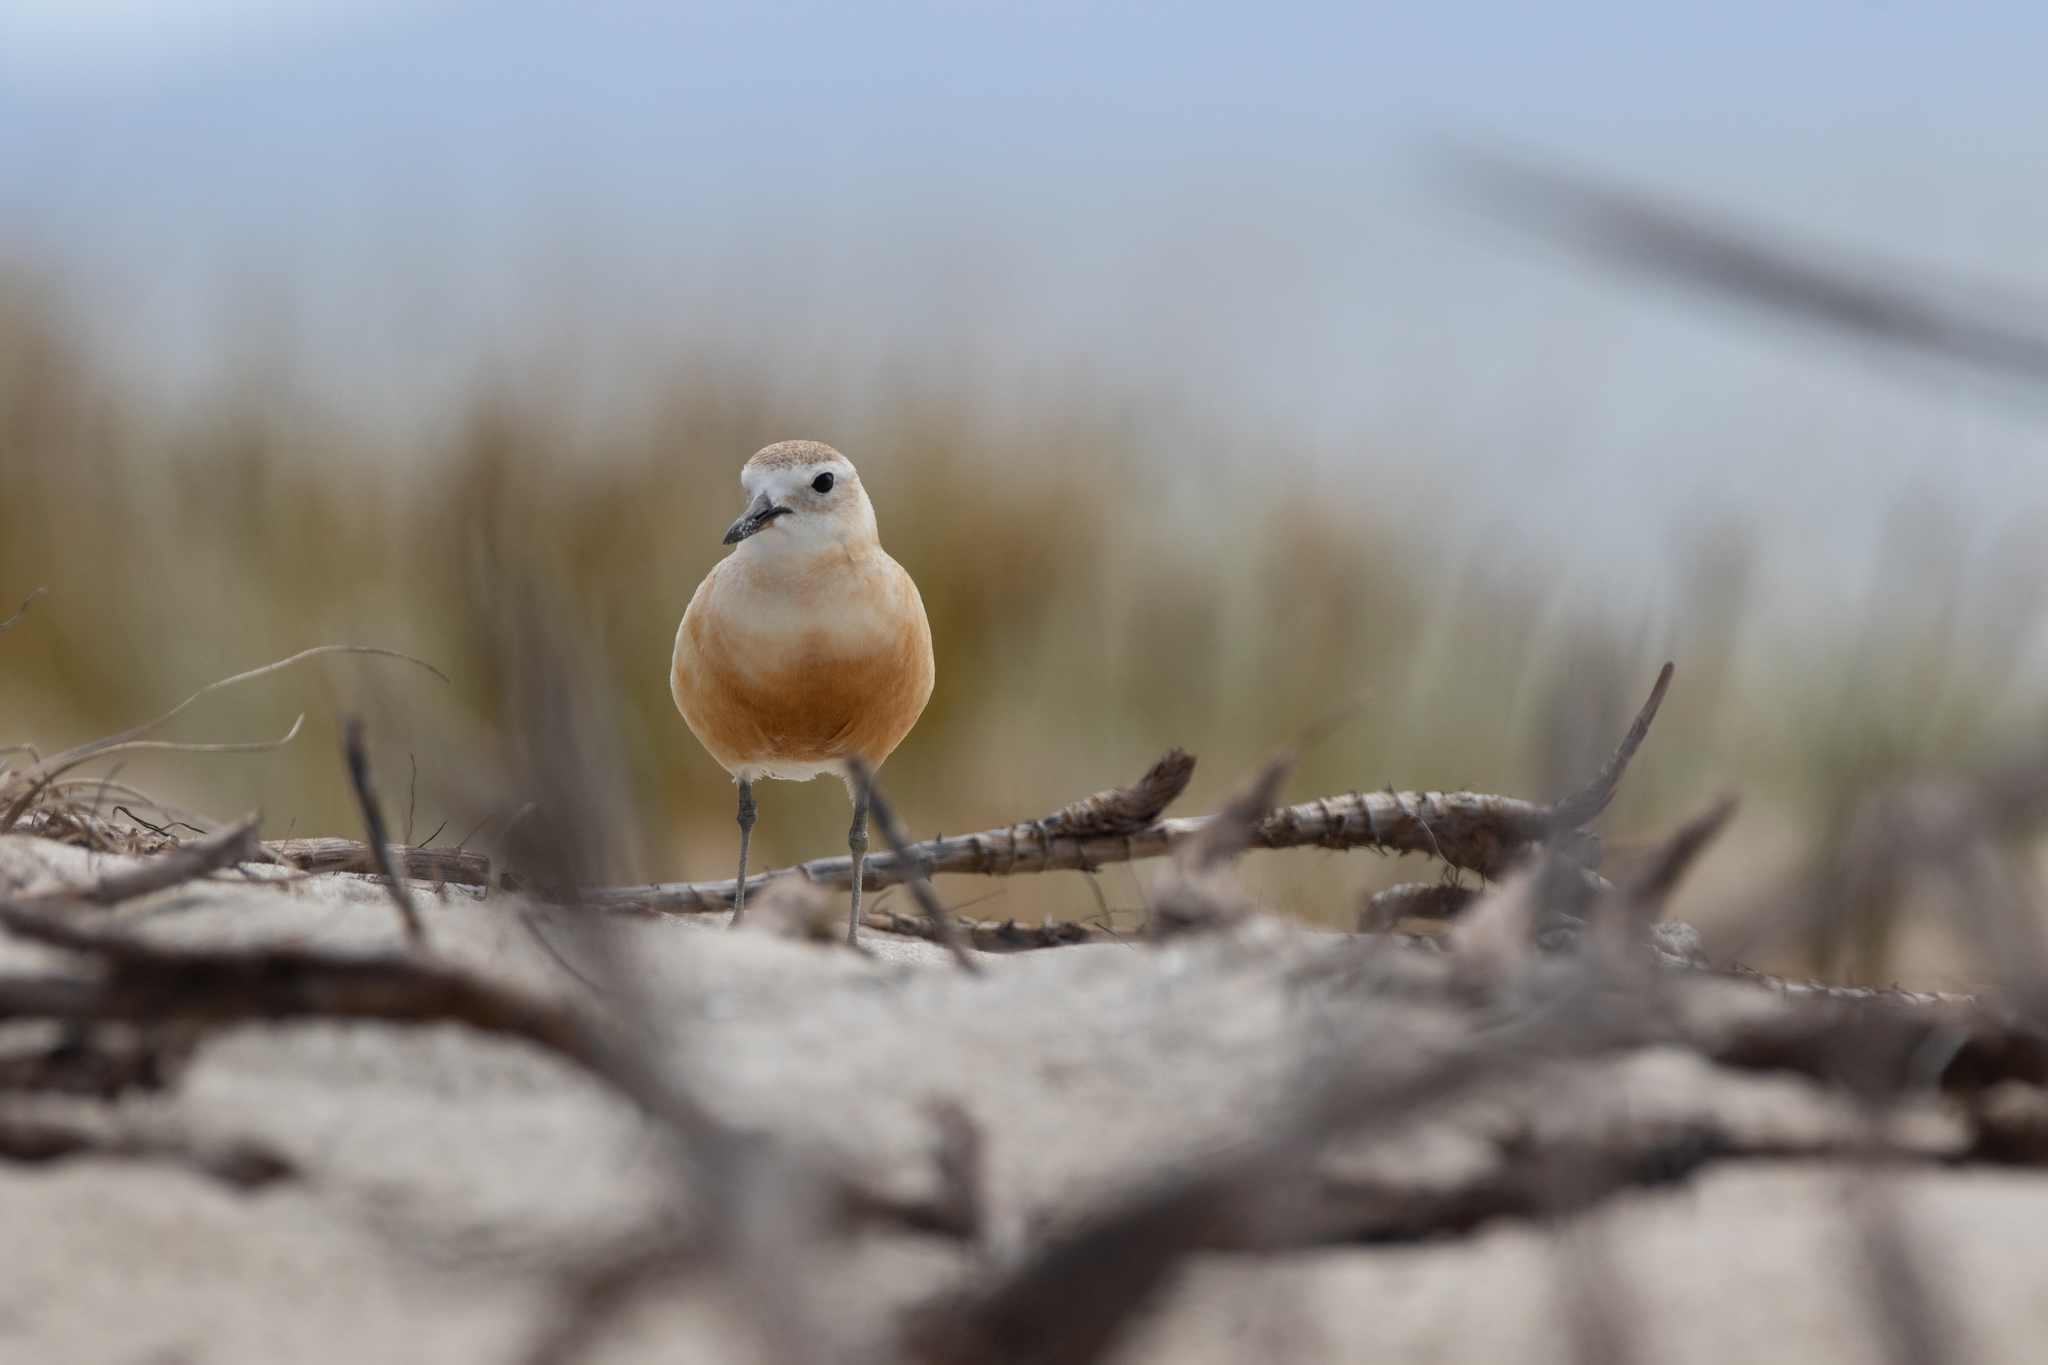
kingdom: Animalia
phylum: Chordata
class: Aves
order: Charadriiformes
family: Charadriidae
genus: Anarhynchus
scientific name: Anarhynchus
